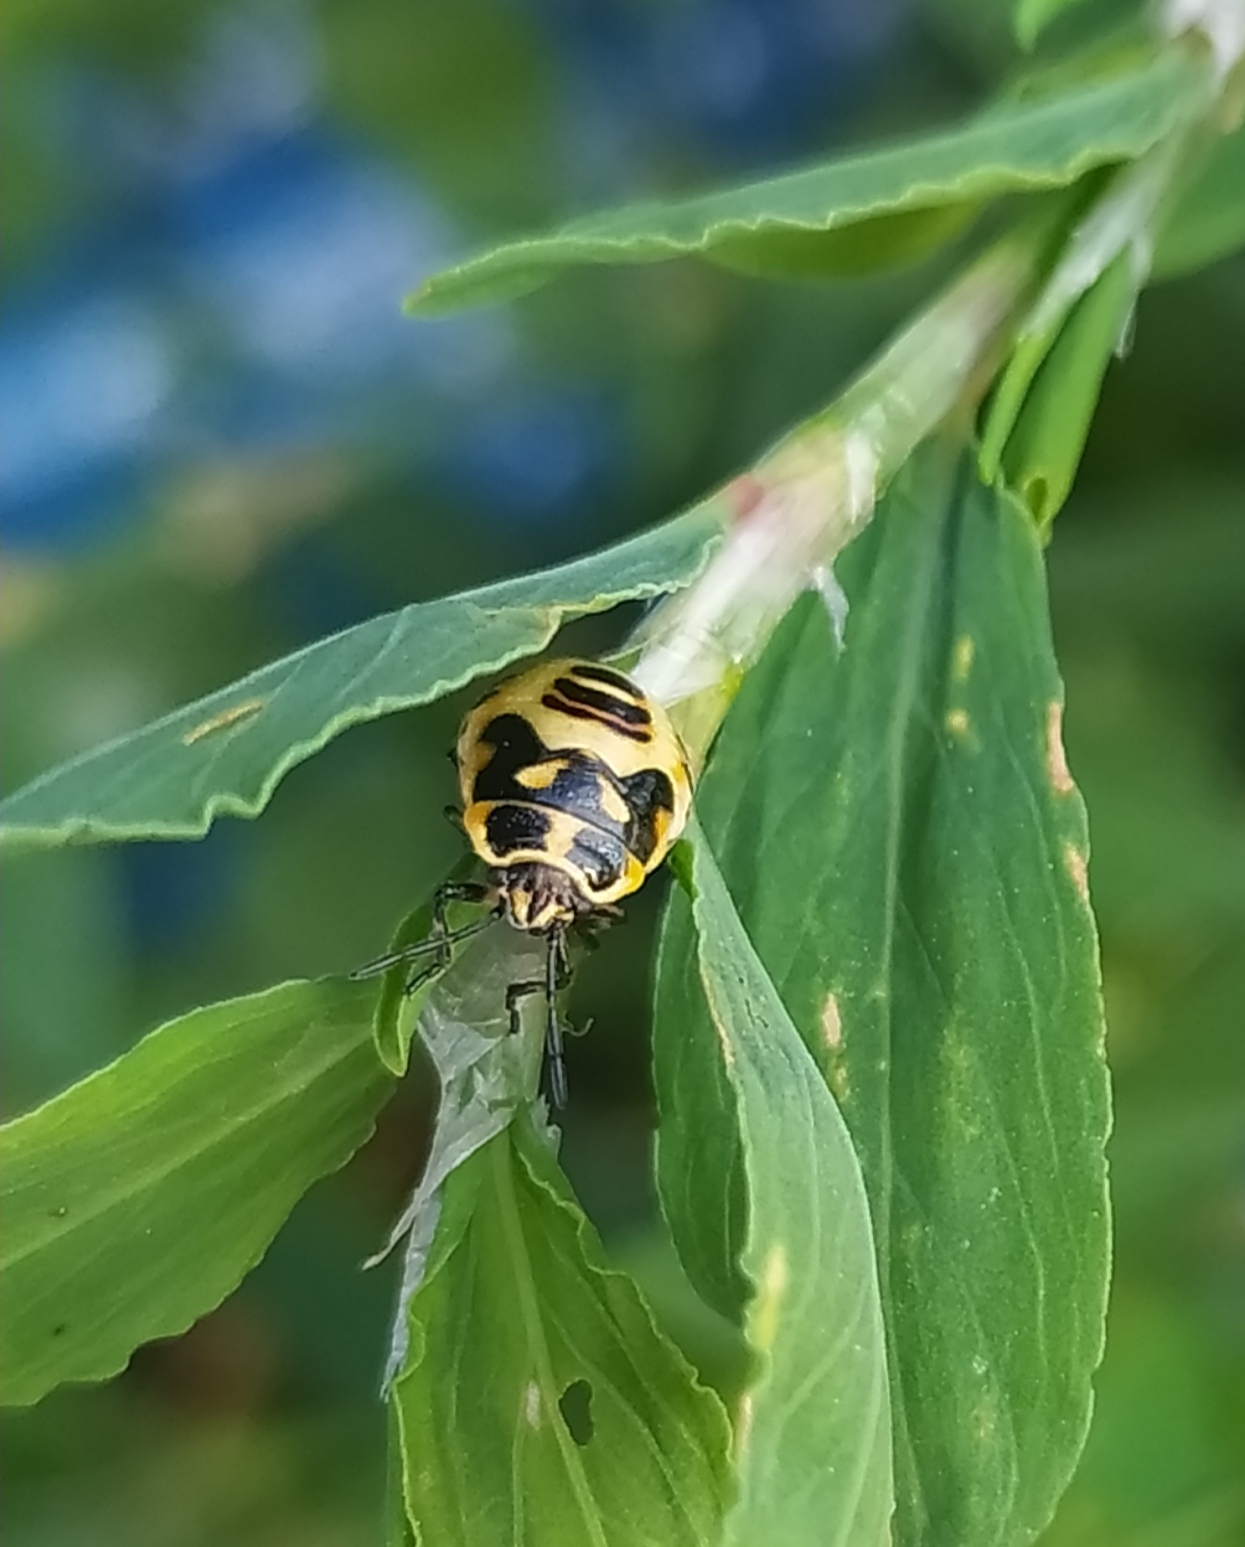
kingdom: Animalia
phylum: Arthropoda
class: Insecta
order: Hemiptera
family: Pentatomidae
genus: Eurydema
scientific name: Eurydema ornata
